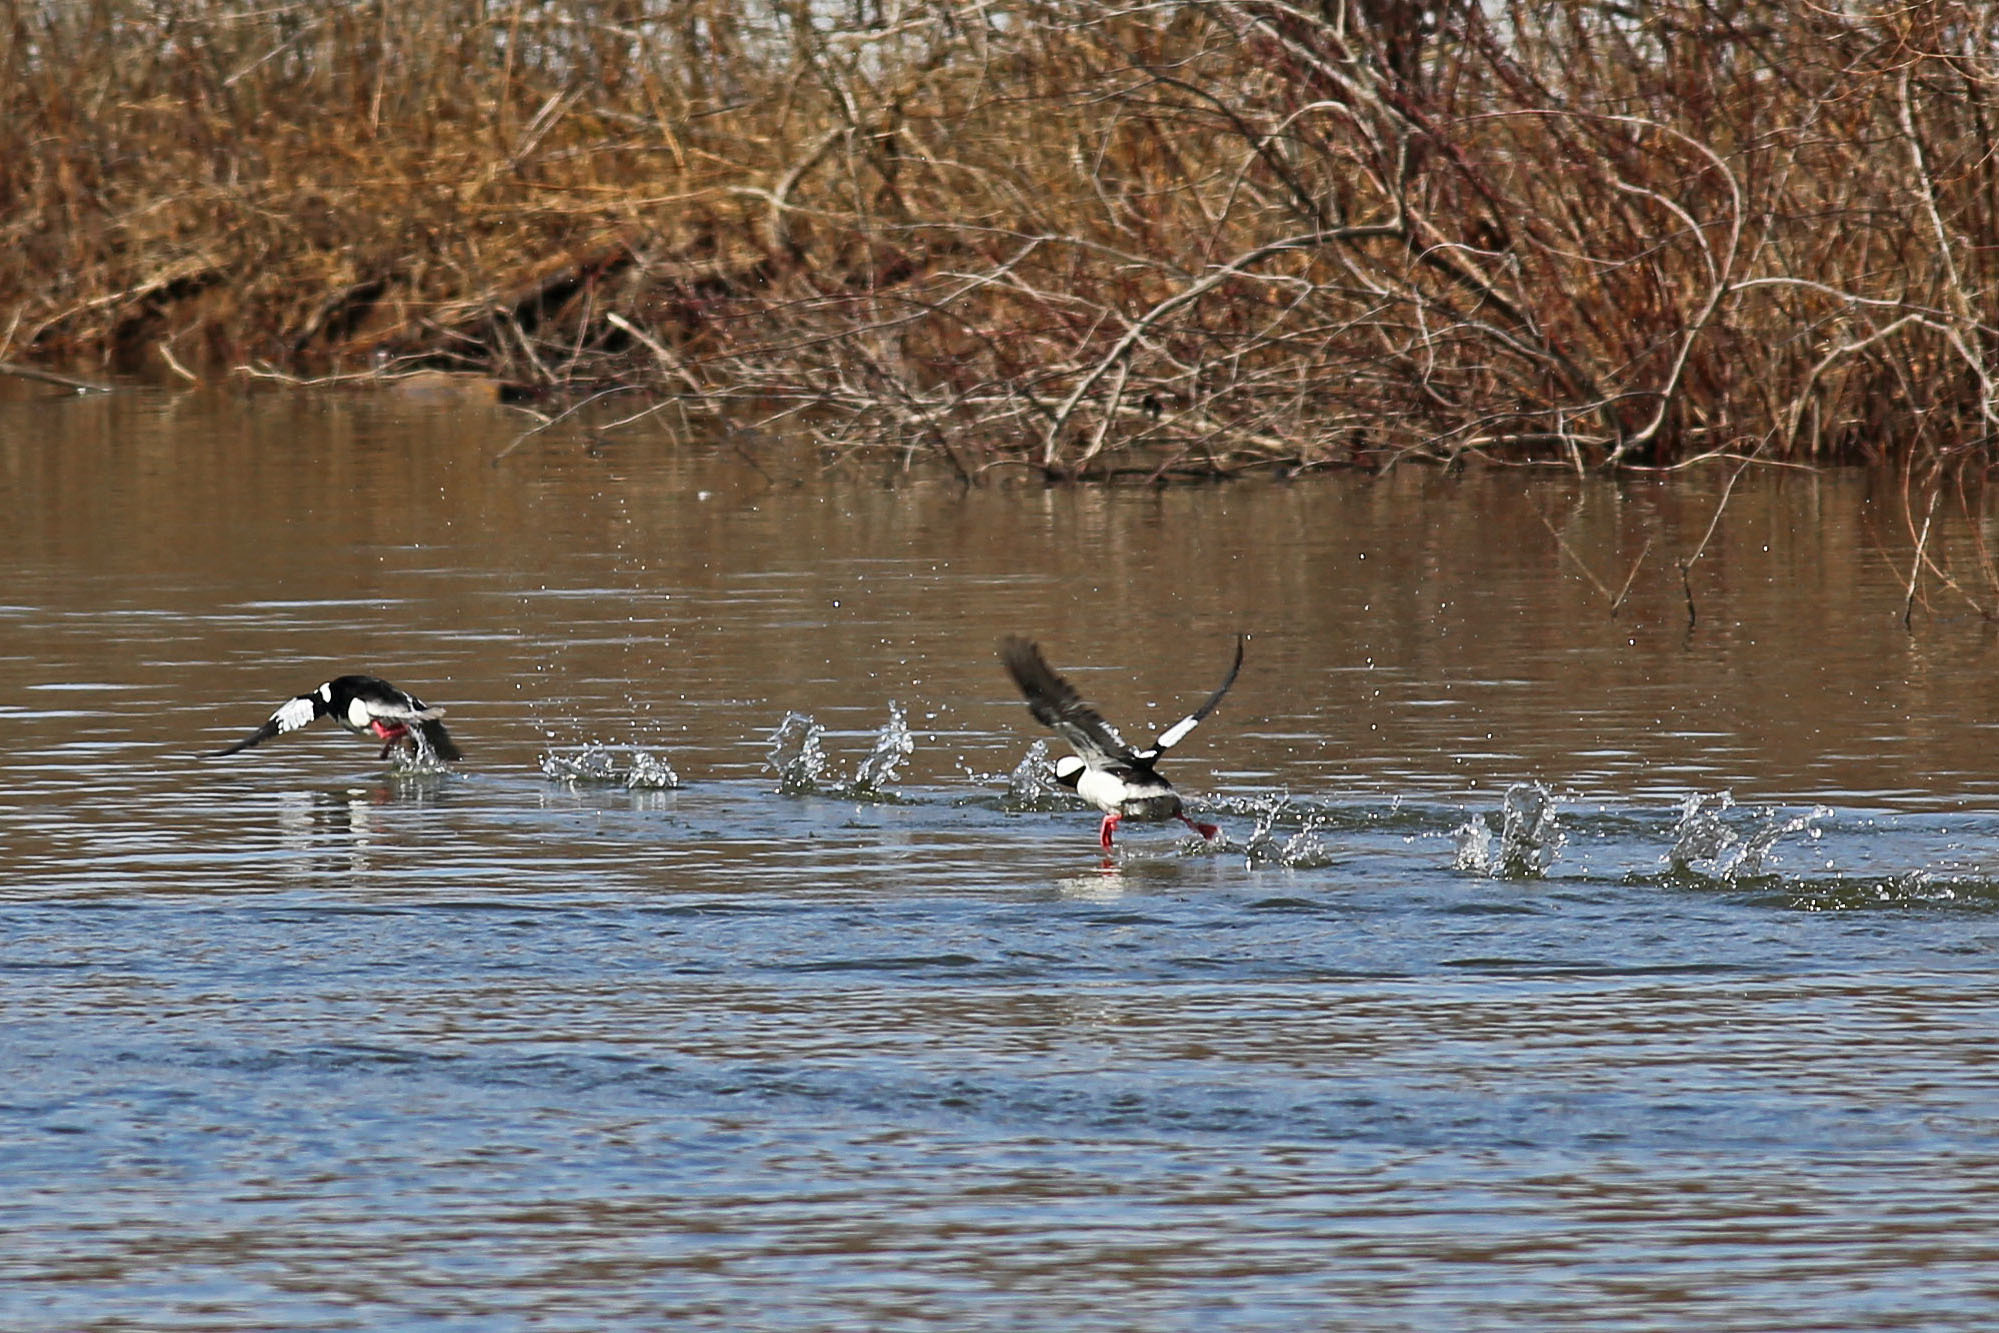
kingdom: Animalia
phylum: Chordata
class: Aves
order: Anseriformes
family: Anatidae
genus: Bucephala
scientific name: Bucephala albeola
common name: Bufflehead
